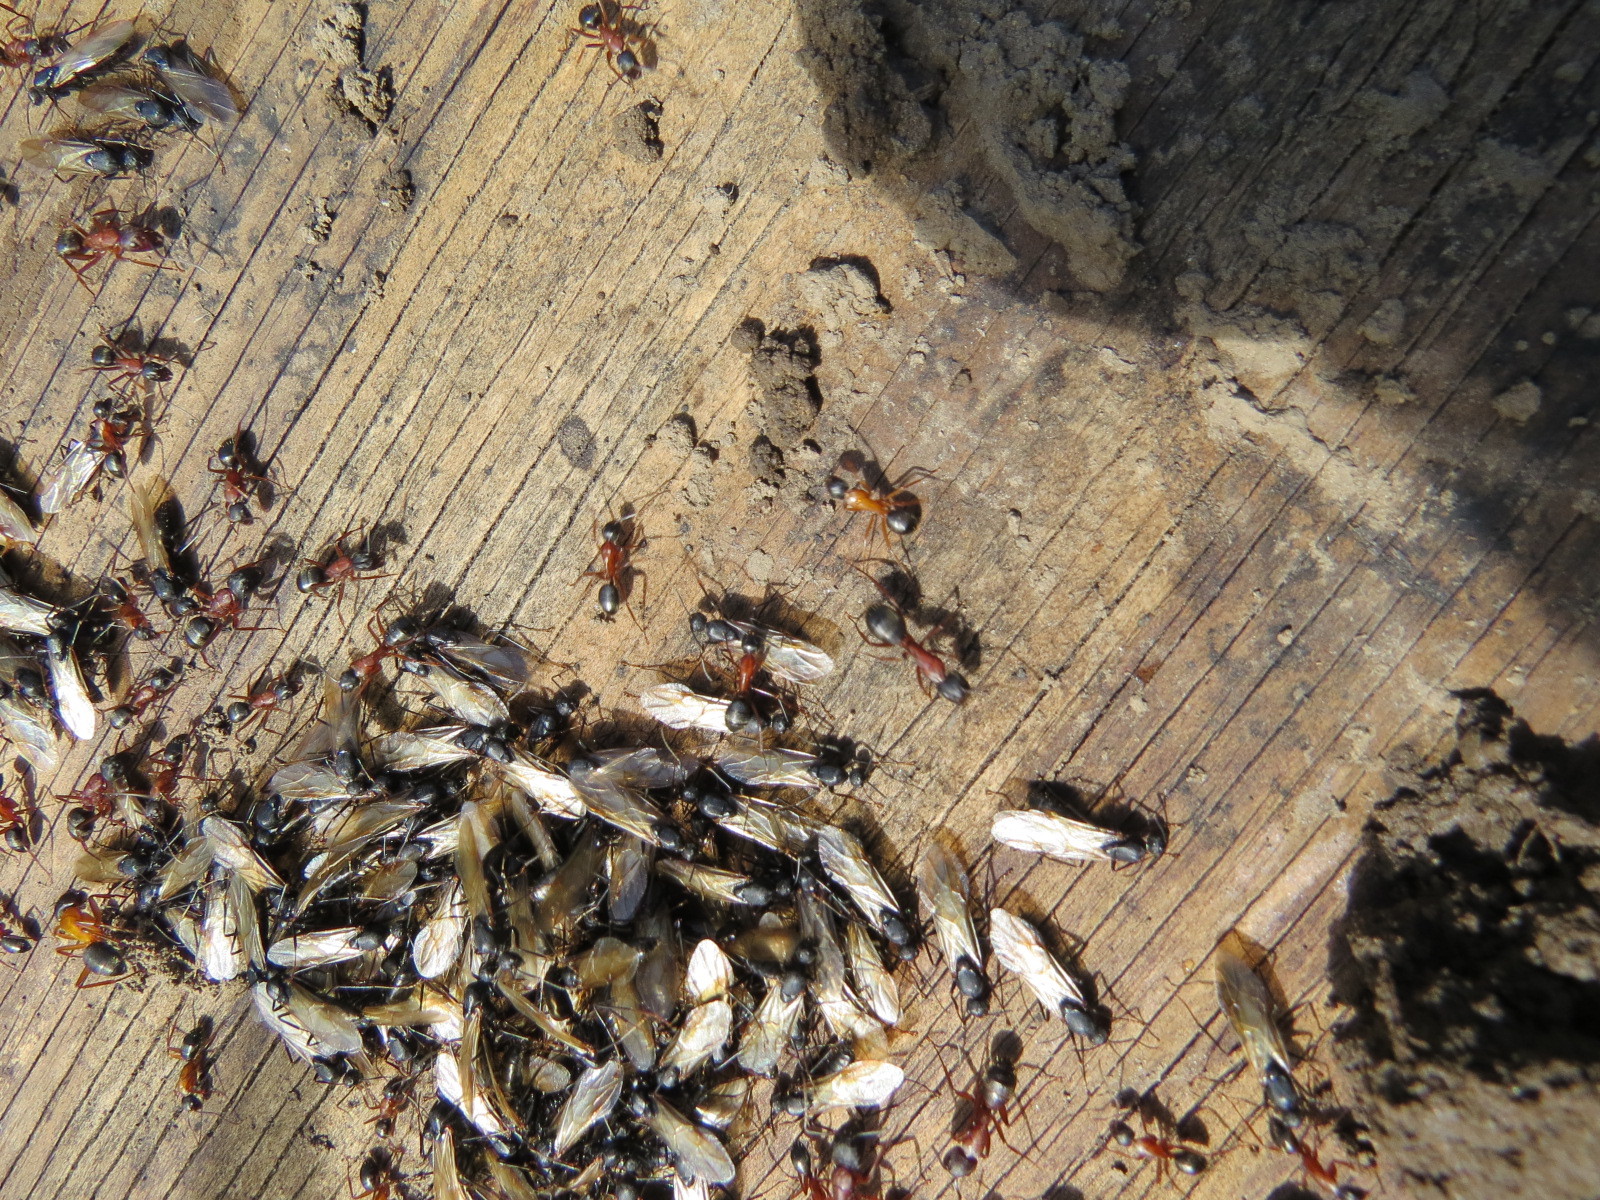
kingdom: Animalia
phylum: Arthropoda
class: Insecta
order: Hymenoptera
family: Formicidae
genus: Camponotus
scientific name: Camponotus vicinus
